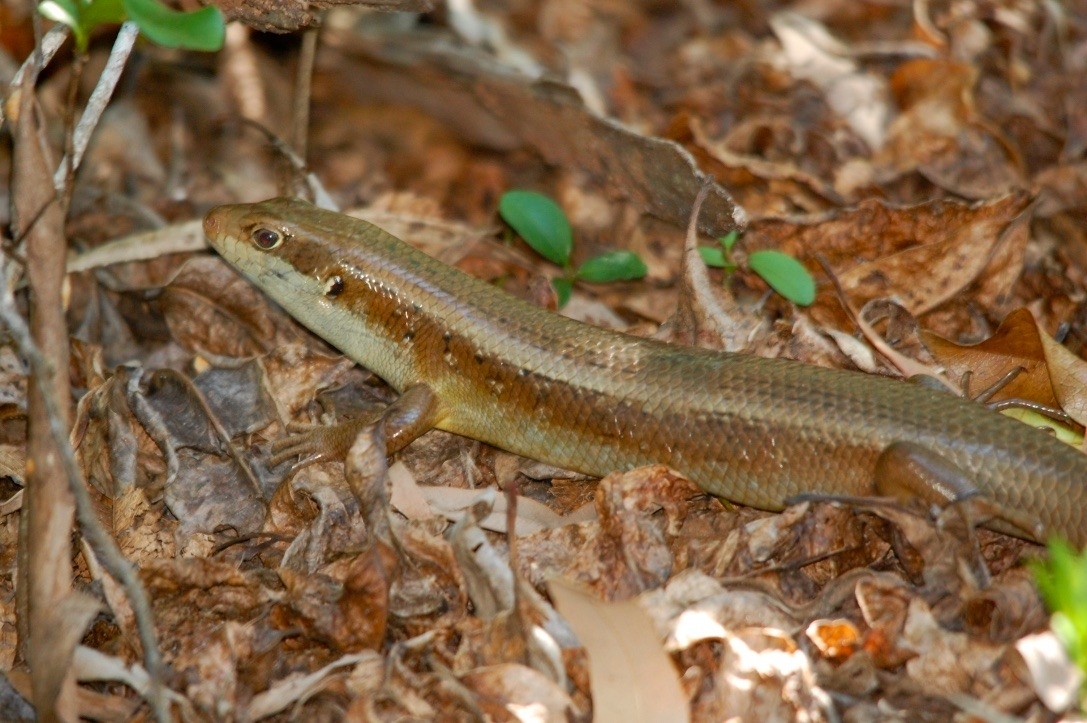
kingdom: Animalia
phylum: Chordata
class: Squamata
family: Scincidae
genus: Bellatorias
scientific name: Bellatorias frerei
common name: Major skink
